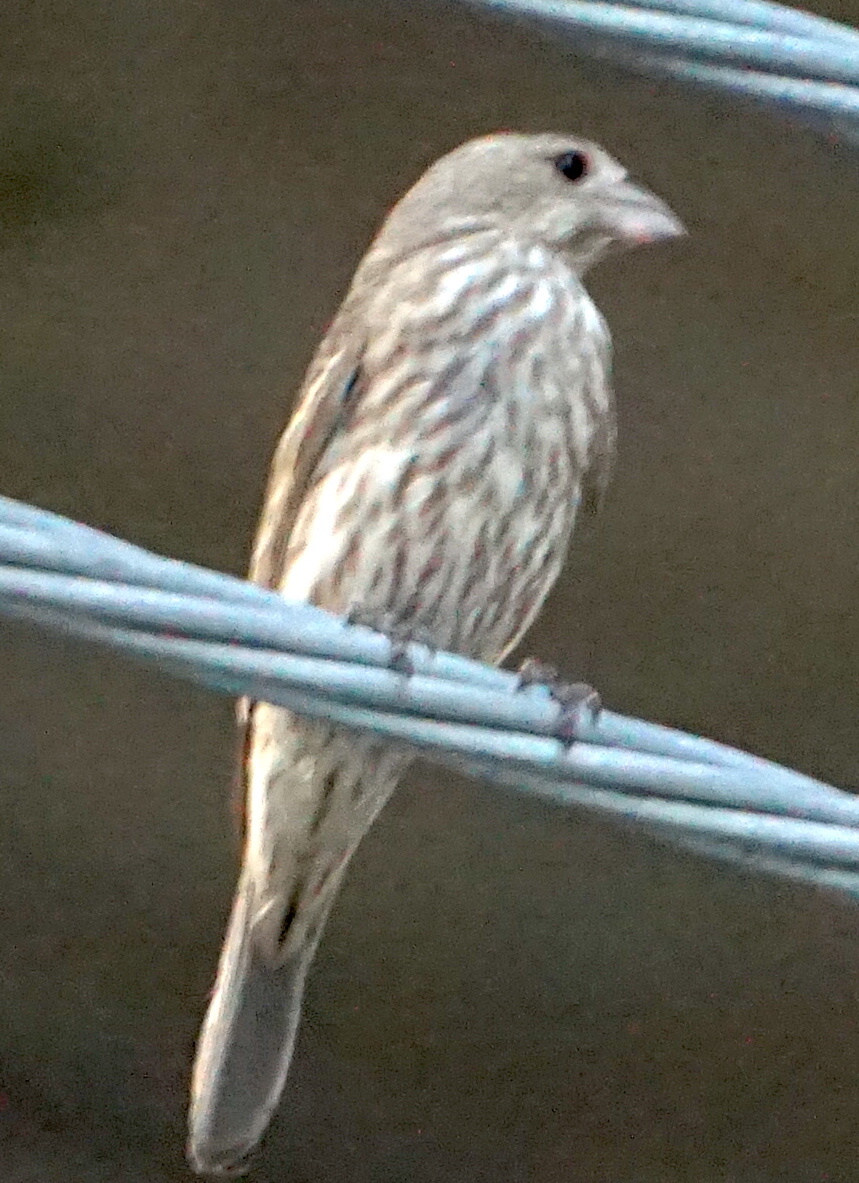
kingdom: Animalia
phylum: Chordata
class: Aves
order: Passeriformes
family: Fringillidae
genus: Haemorhous
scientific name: Haemorhous mexicanus
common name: House finch
